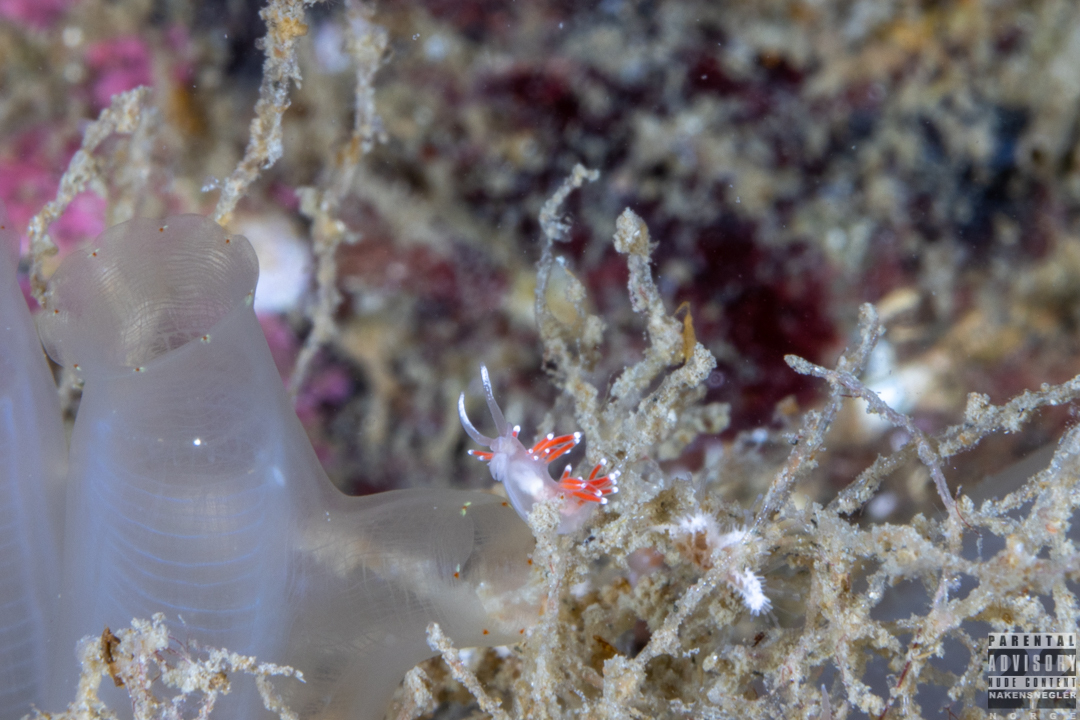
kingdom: Animalia
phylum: Mollusca
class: Gastropoda
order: Nudibranchia
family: Coryphellidae
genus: Coryphella
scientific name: Coryphella gracilis
